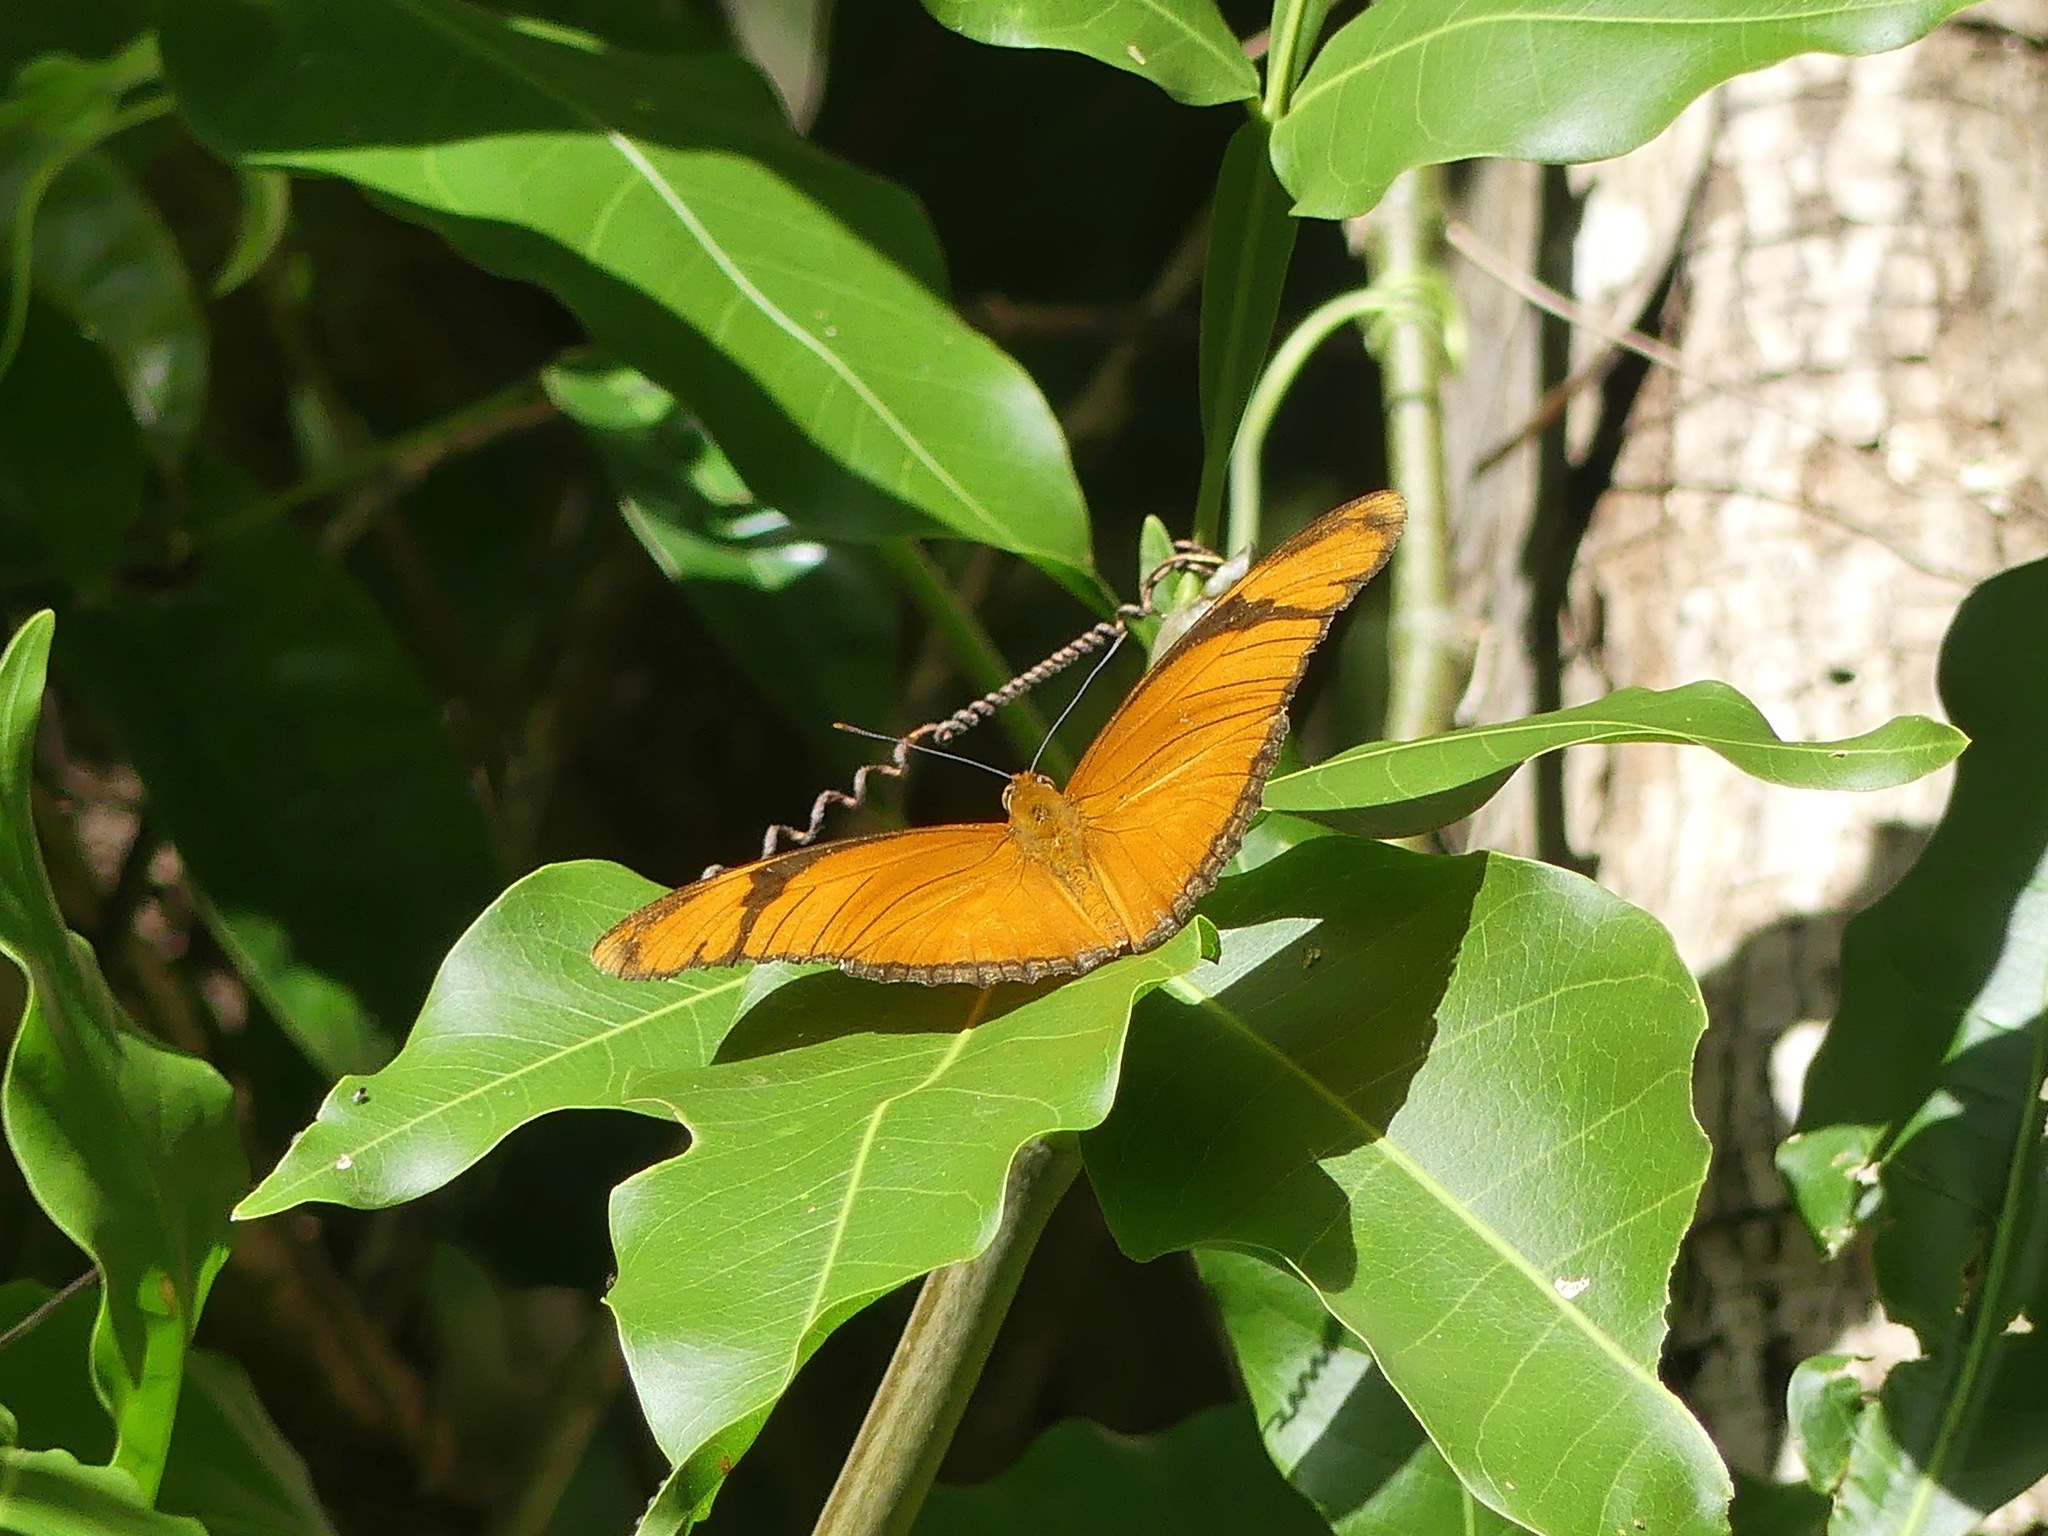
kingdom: Animalia
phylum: Arthropoda
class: Insecta
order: Lepidoptera
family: Nymphalidae
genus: Dryas
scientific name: Dryas iulia
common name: Flambeau
